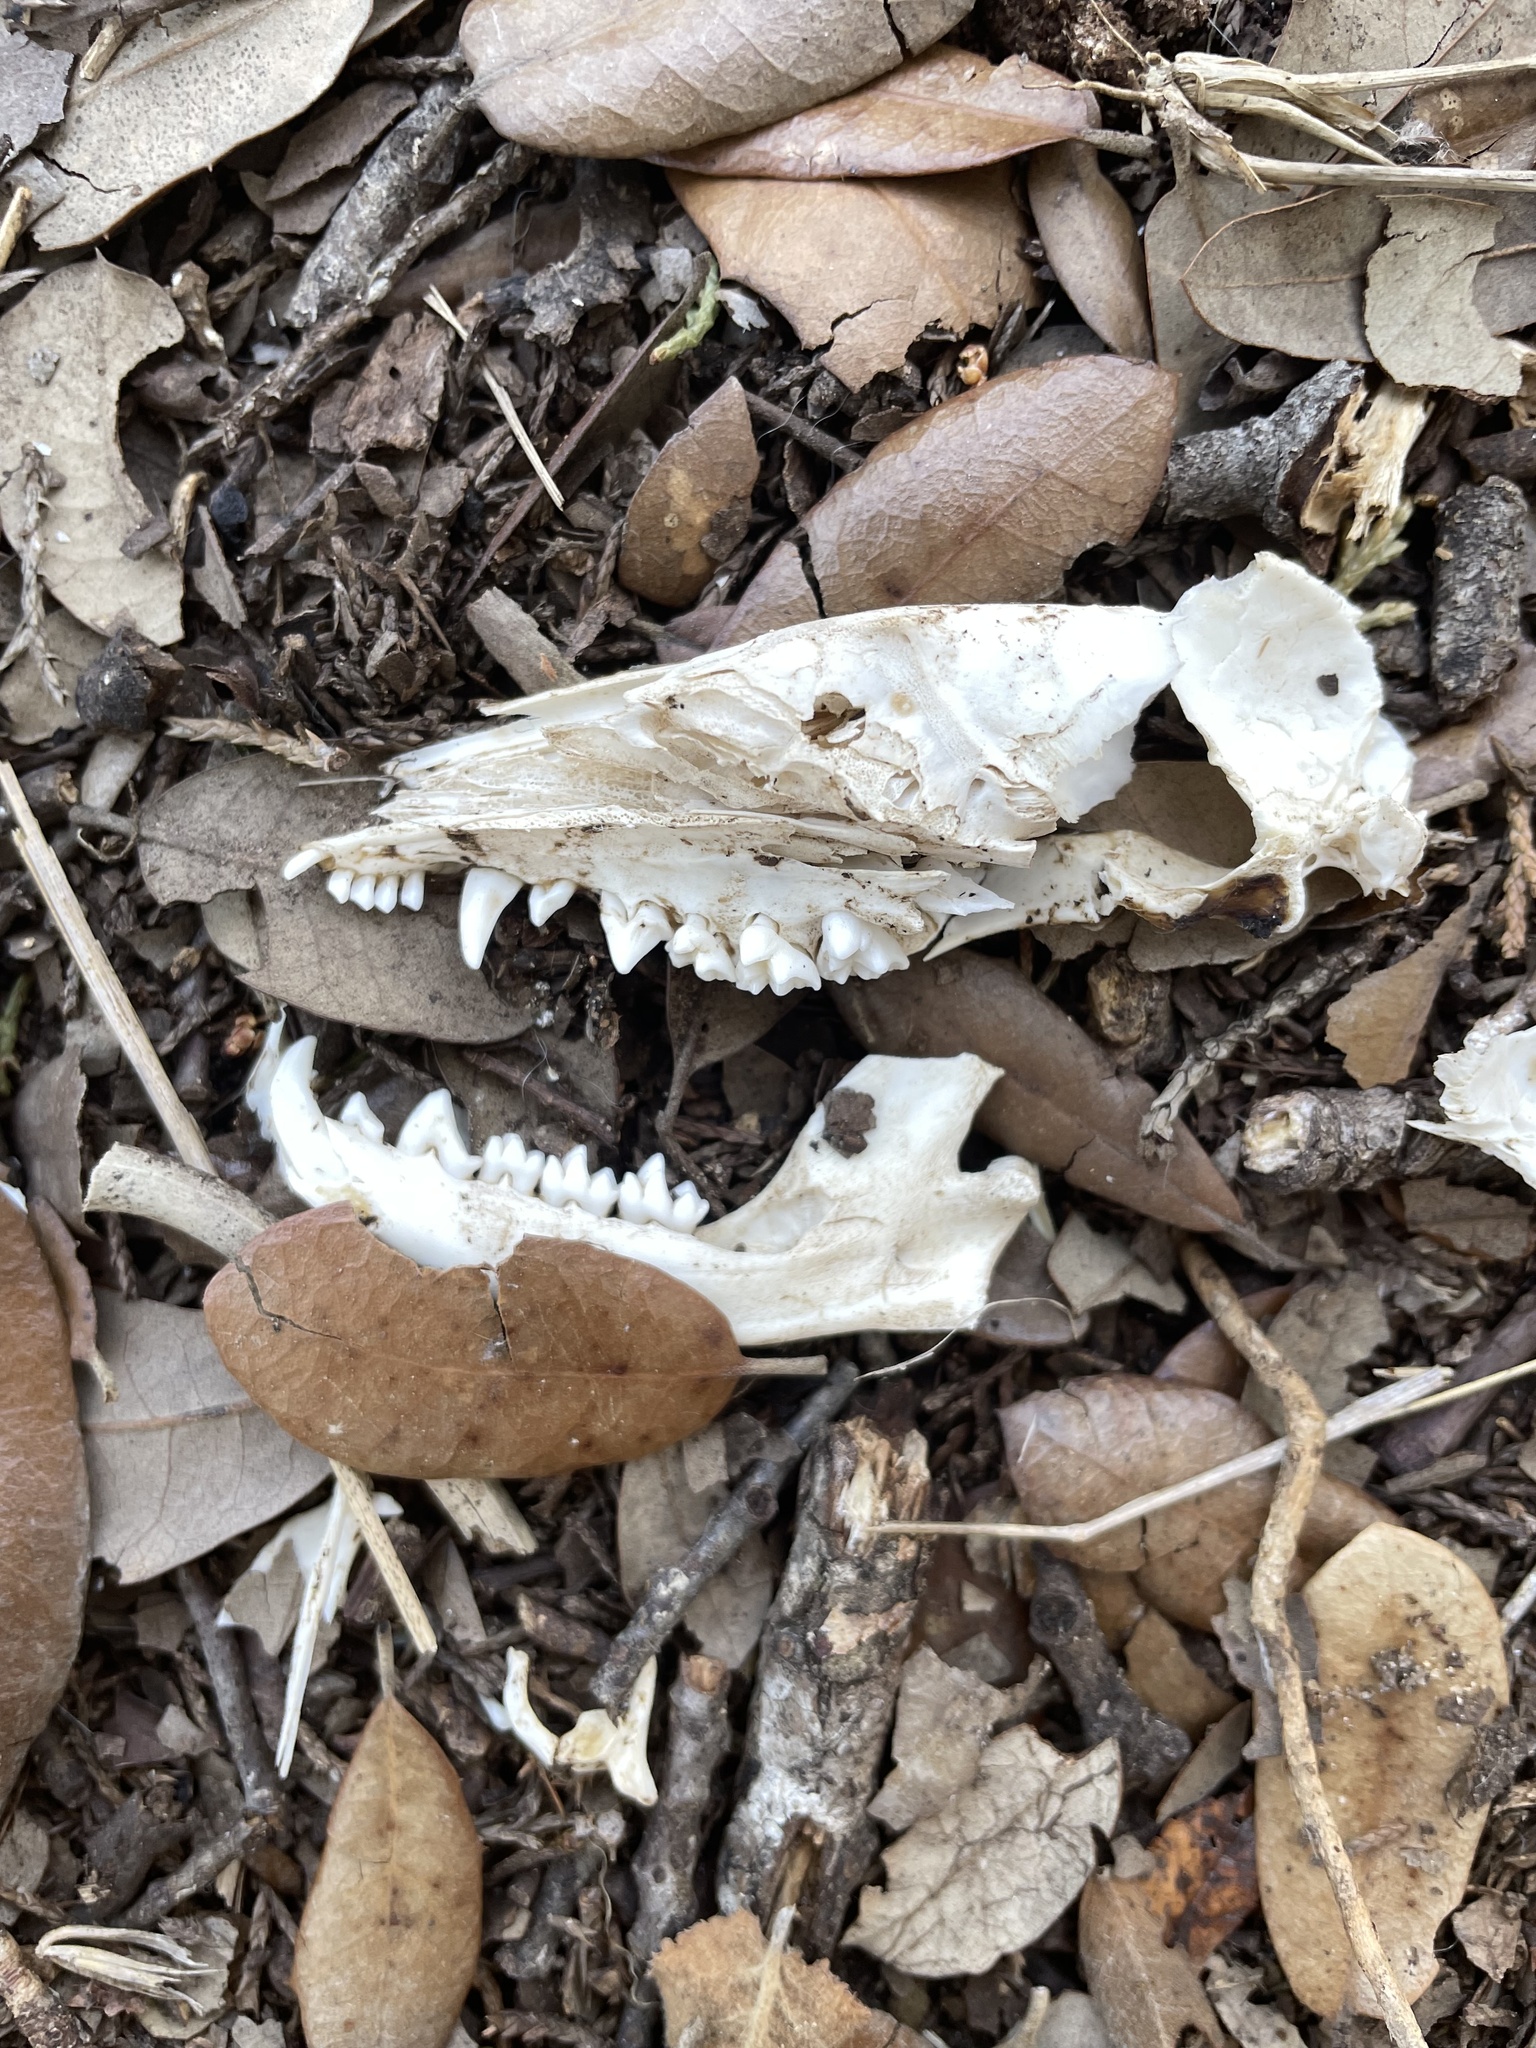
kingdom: Animalia
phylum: Chordata
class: Mammalia
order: Didelphimorphia
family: Didelphidae
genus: Didelphis
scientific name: Didelphis virginiana
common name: Virginia opossum
